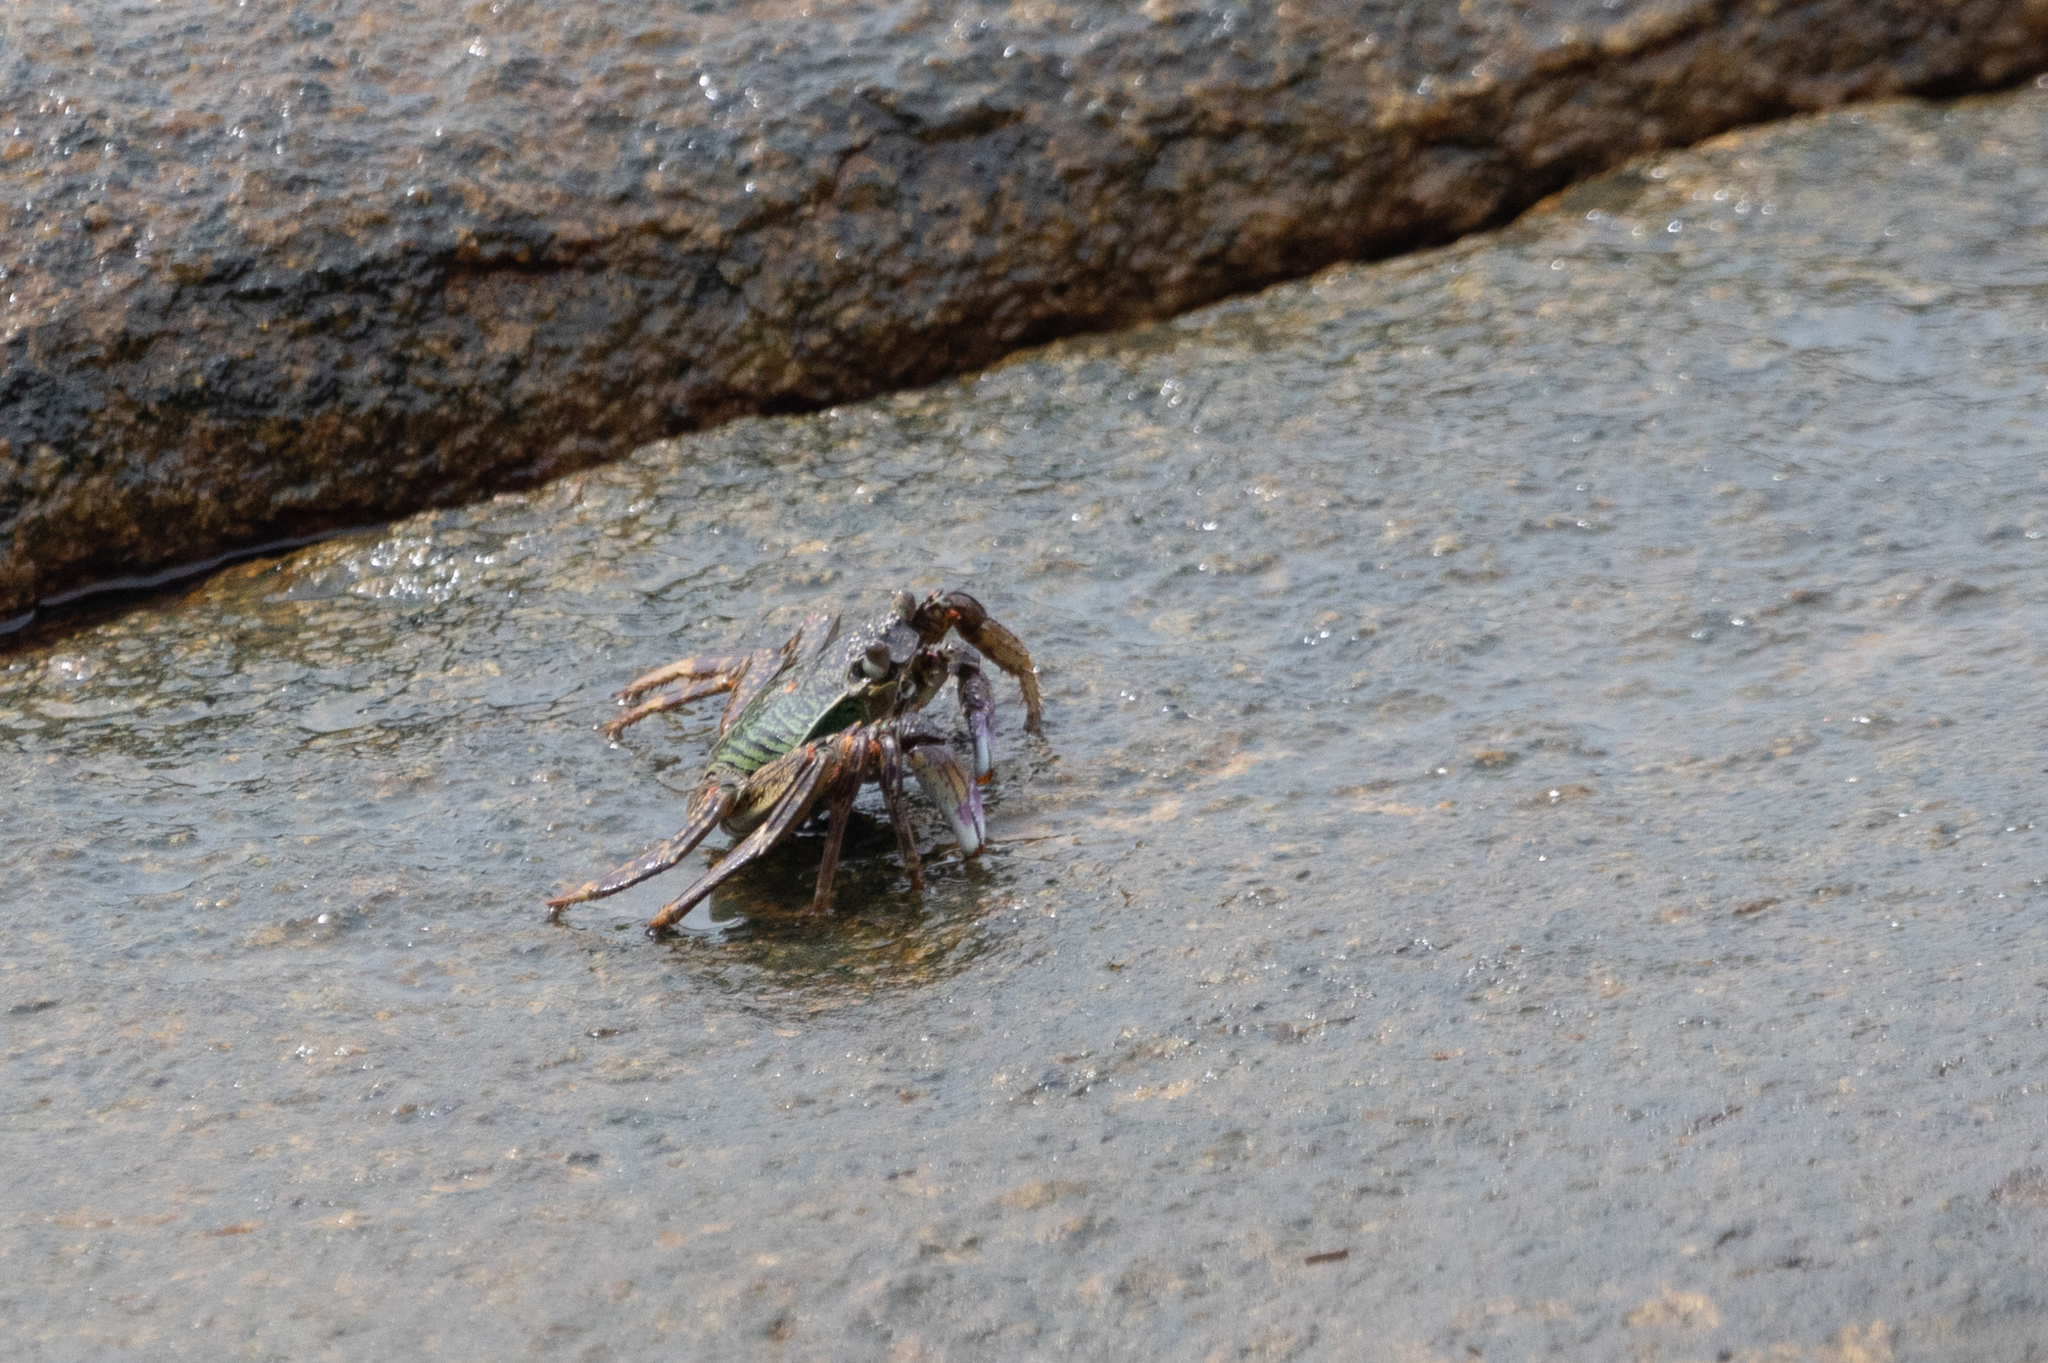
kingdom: Animalia
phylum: Arthropoda
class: Malacostraca
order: Decapoda
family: Grapsidae
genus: Grapsus
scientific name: Grapsus albolineatus
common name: Mottled lightfoot crab
